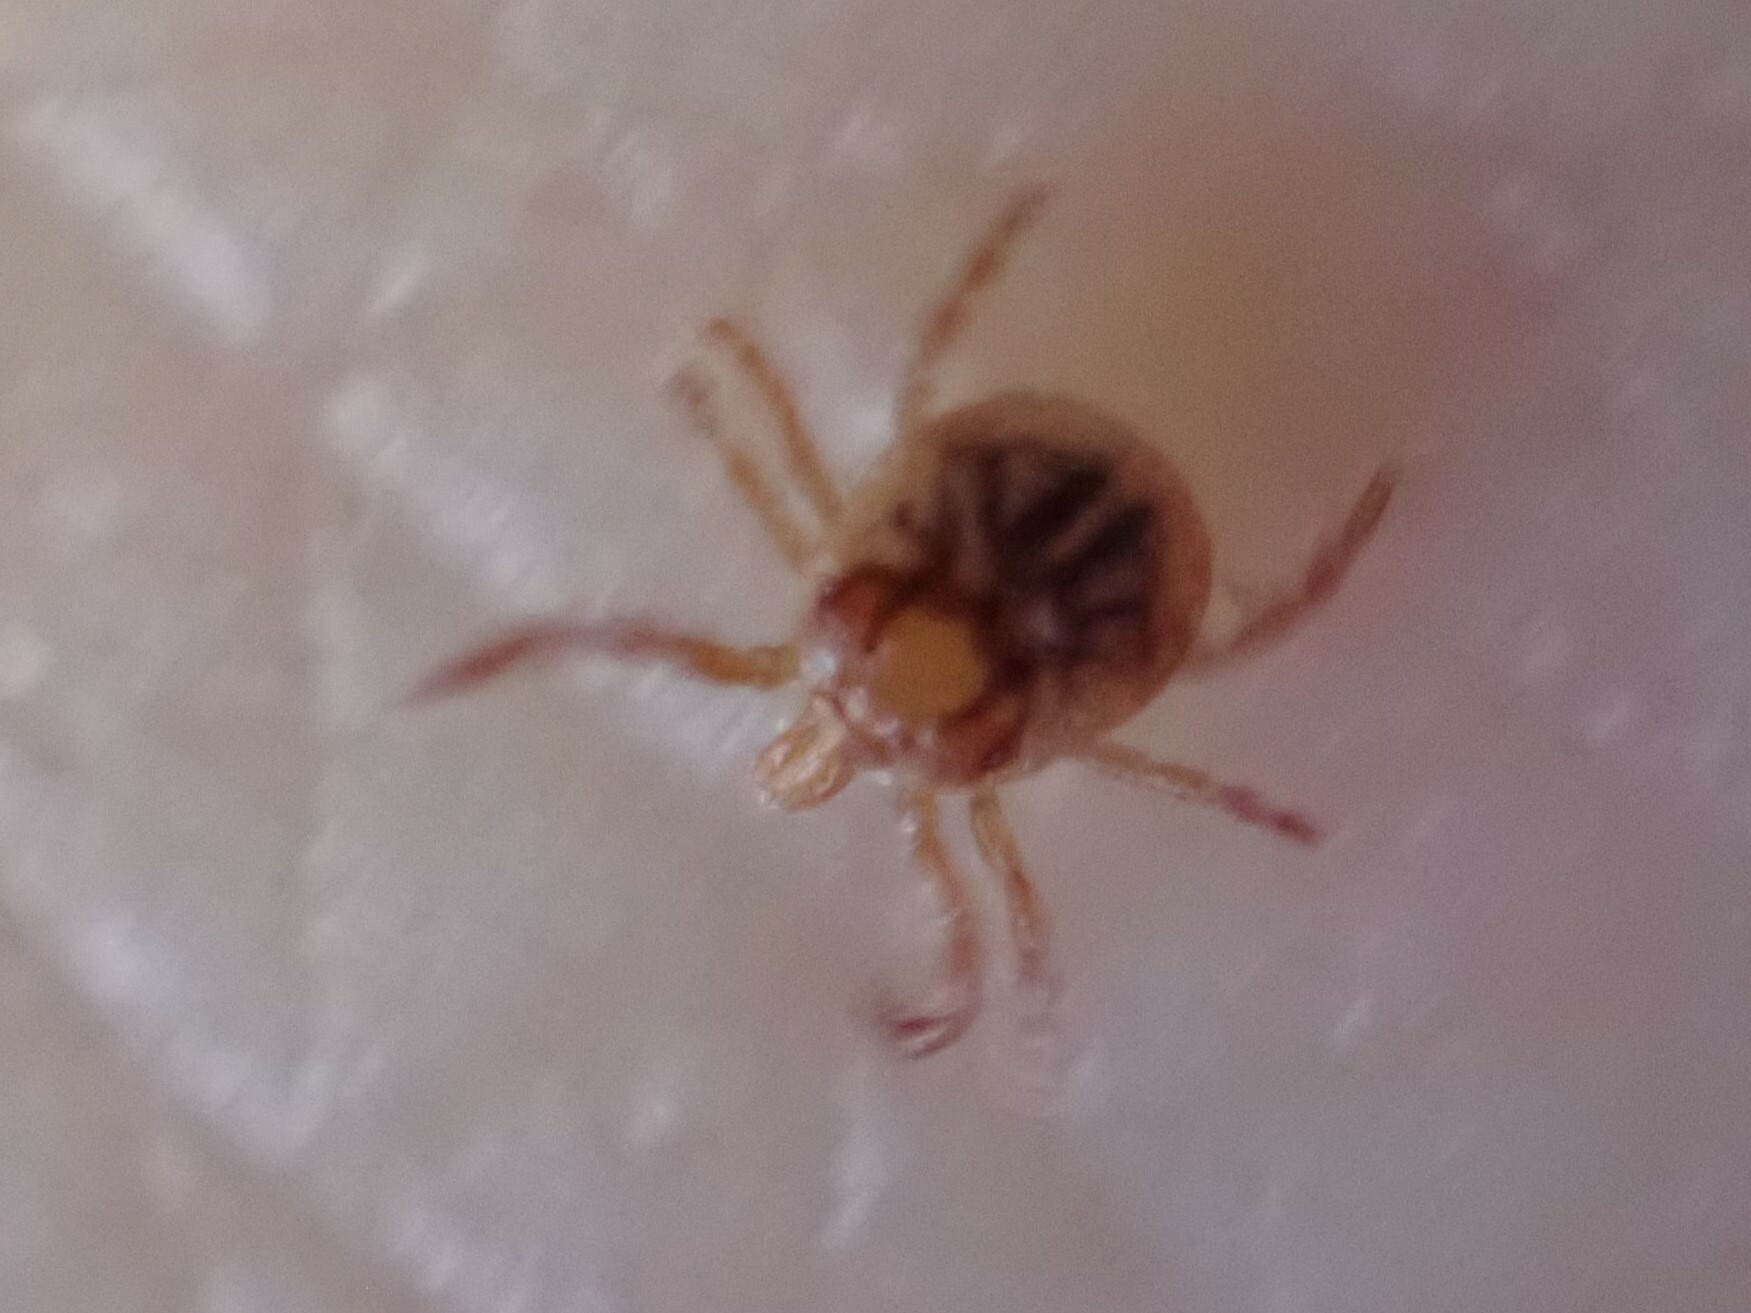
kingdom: Animalia
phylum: Arthropoda
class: Arachnida
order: Ixodida
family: Ixodidae
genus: Amblyomma
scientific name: Amblyomma americanum
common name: Lone star tick
